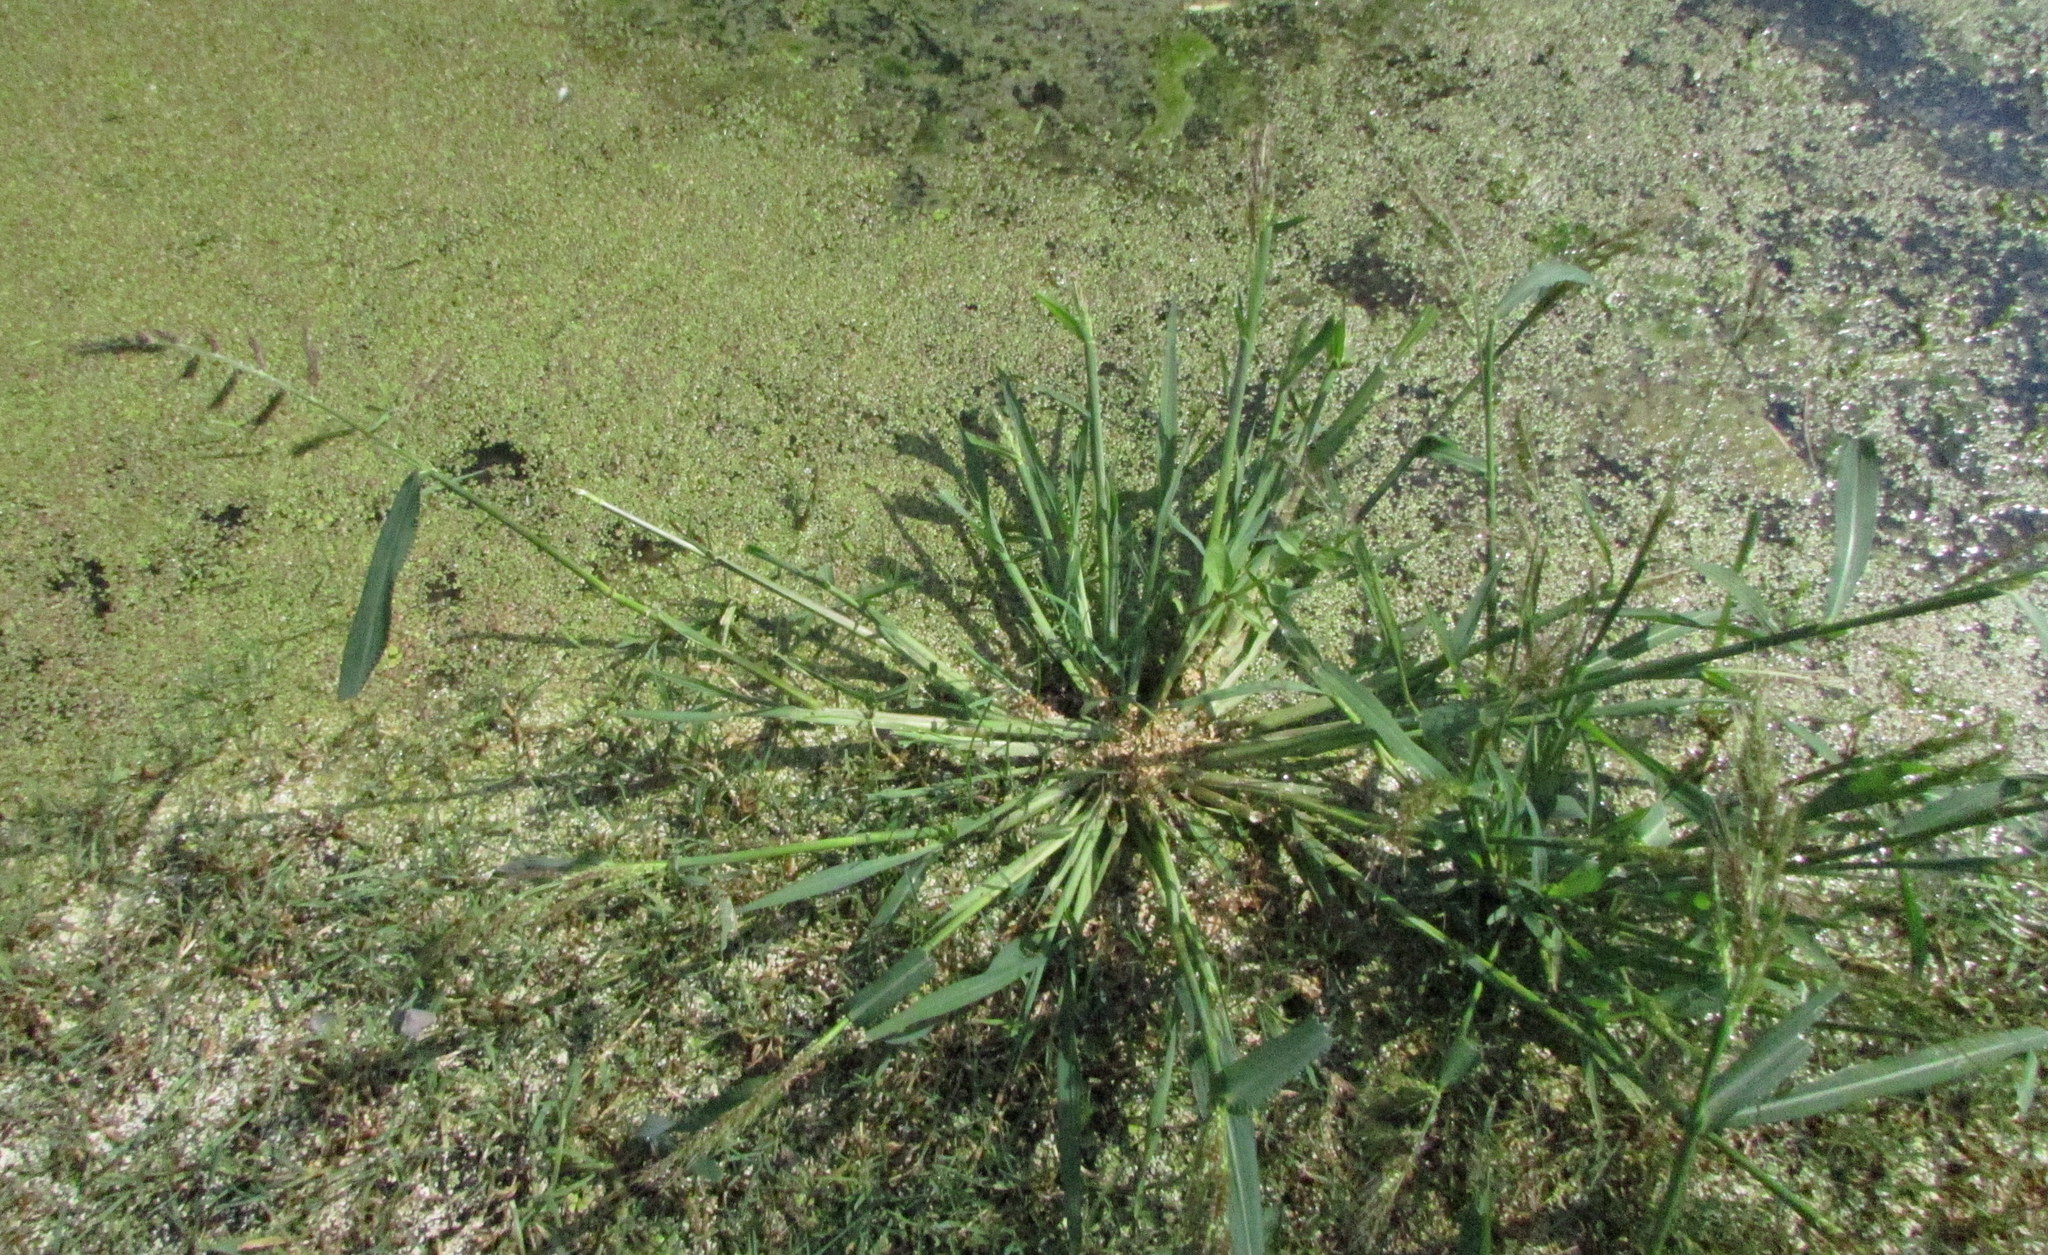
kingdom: Plantae
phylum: Tracheophyta
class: Liliopsida
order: Poales
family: Poaceae
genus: Echinochloa
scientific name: Echinochloa crus-galli
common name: Cockspur
